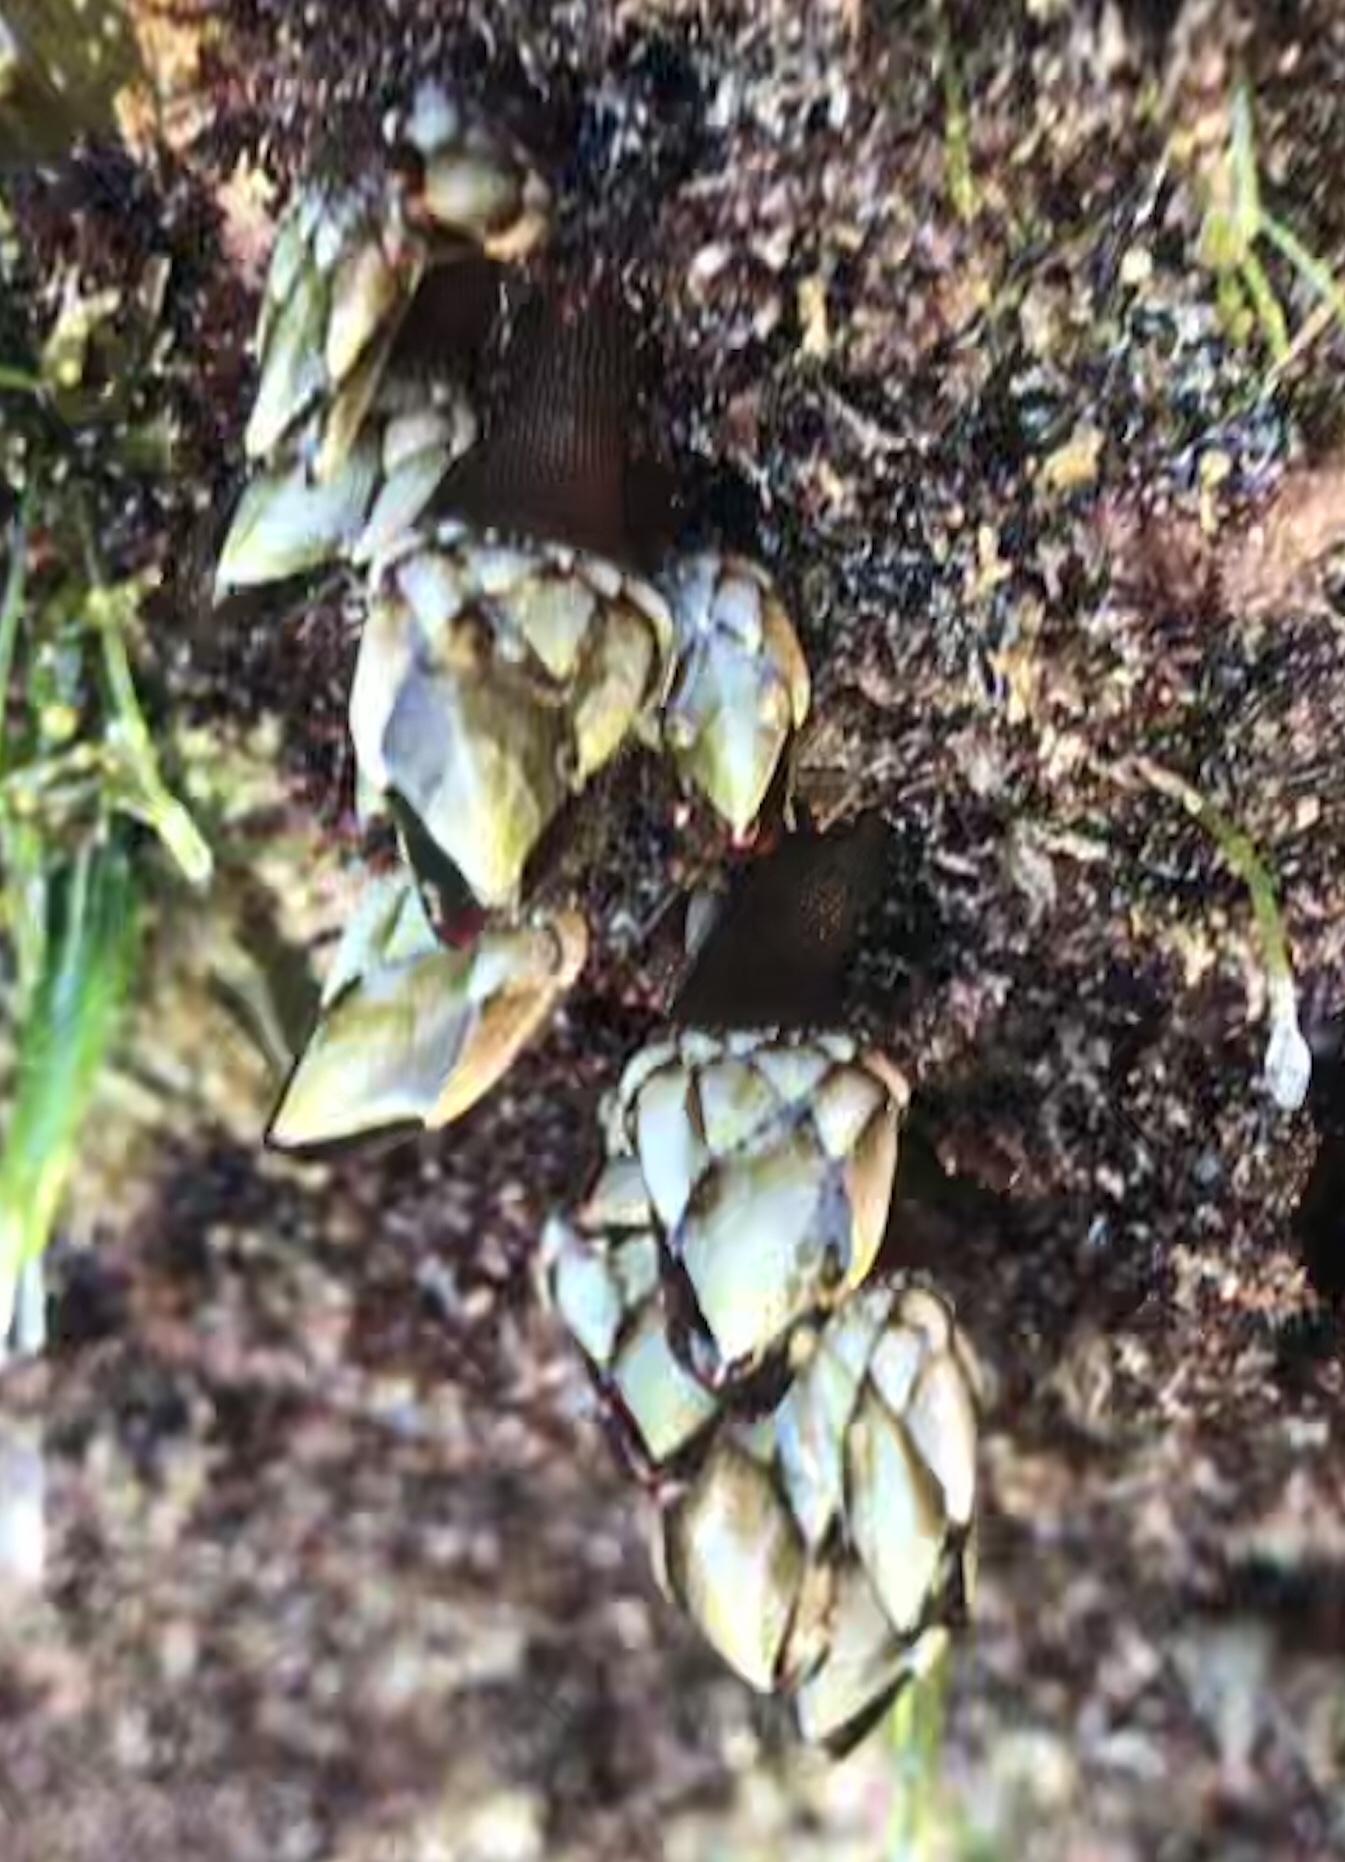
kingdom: Animalia
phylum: Arthropoda
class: Maxillopoda
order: Pedunculata
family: Pollicipedidae
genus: Pollicipes
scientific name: Pollicipes elegans
